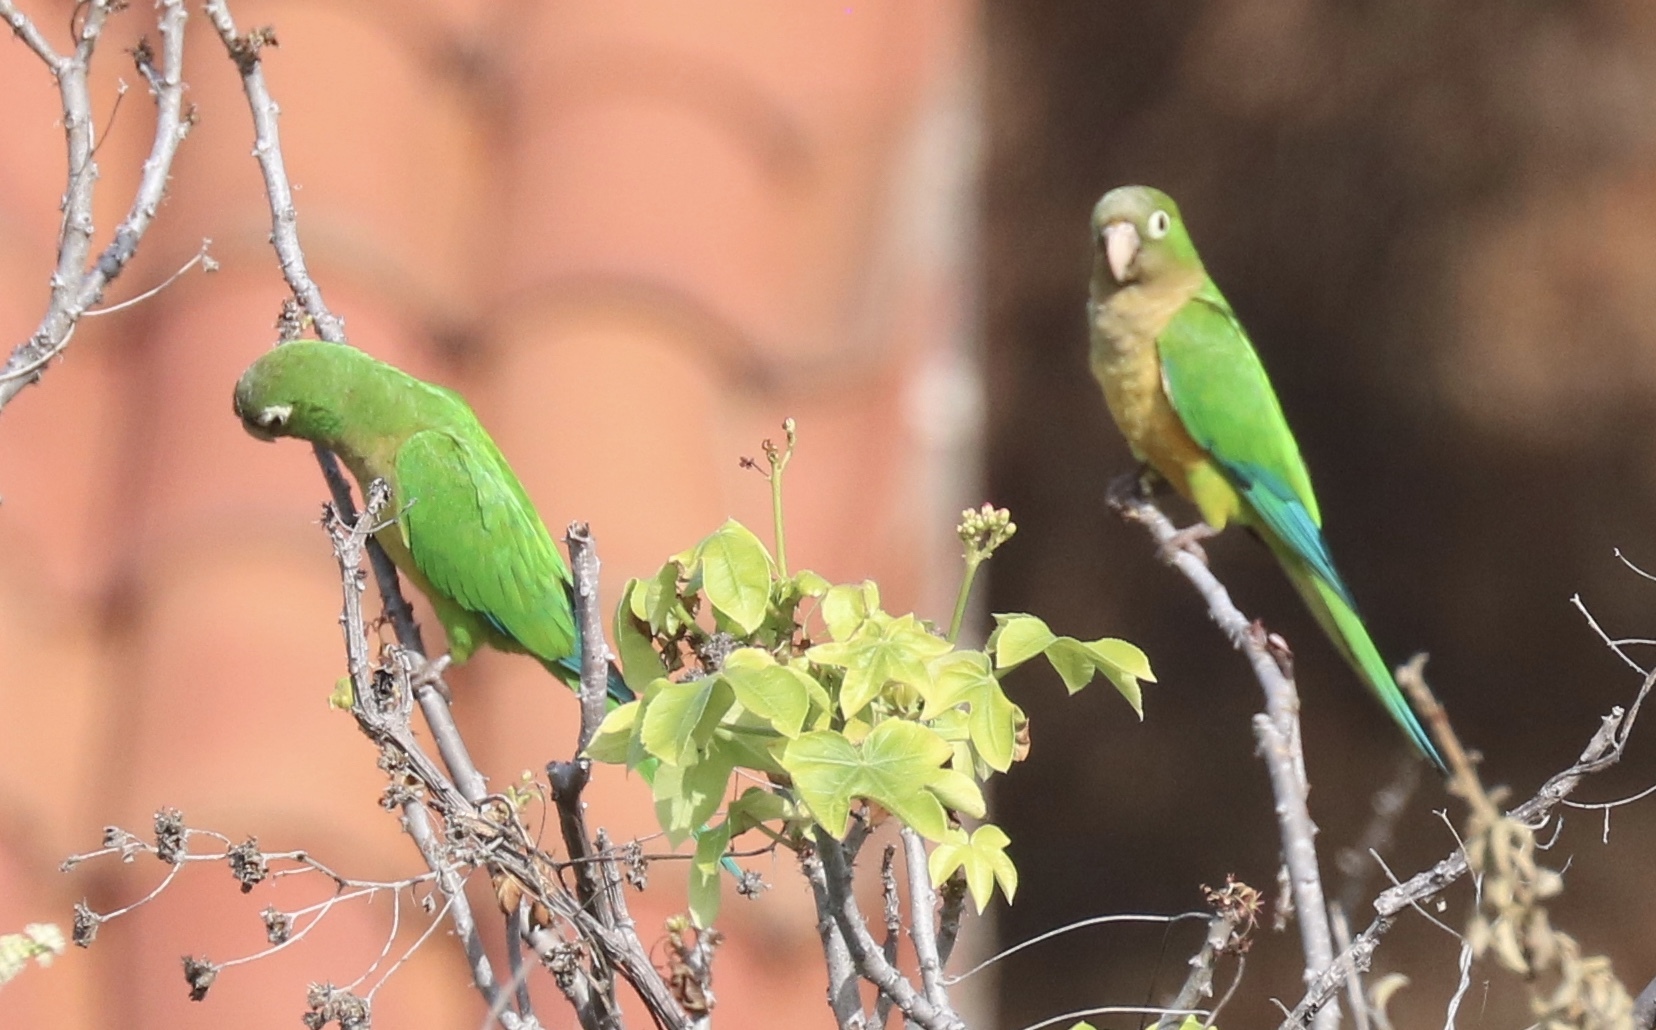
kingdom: Animalia
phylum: Chordata
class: Aves
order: Psittaciformes
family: Psittacidae
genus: Aratinga
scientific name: Aratinga cactorum
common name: Caatinga parakeet
